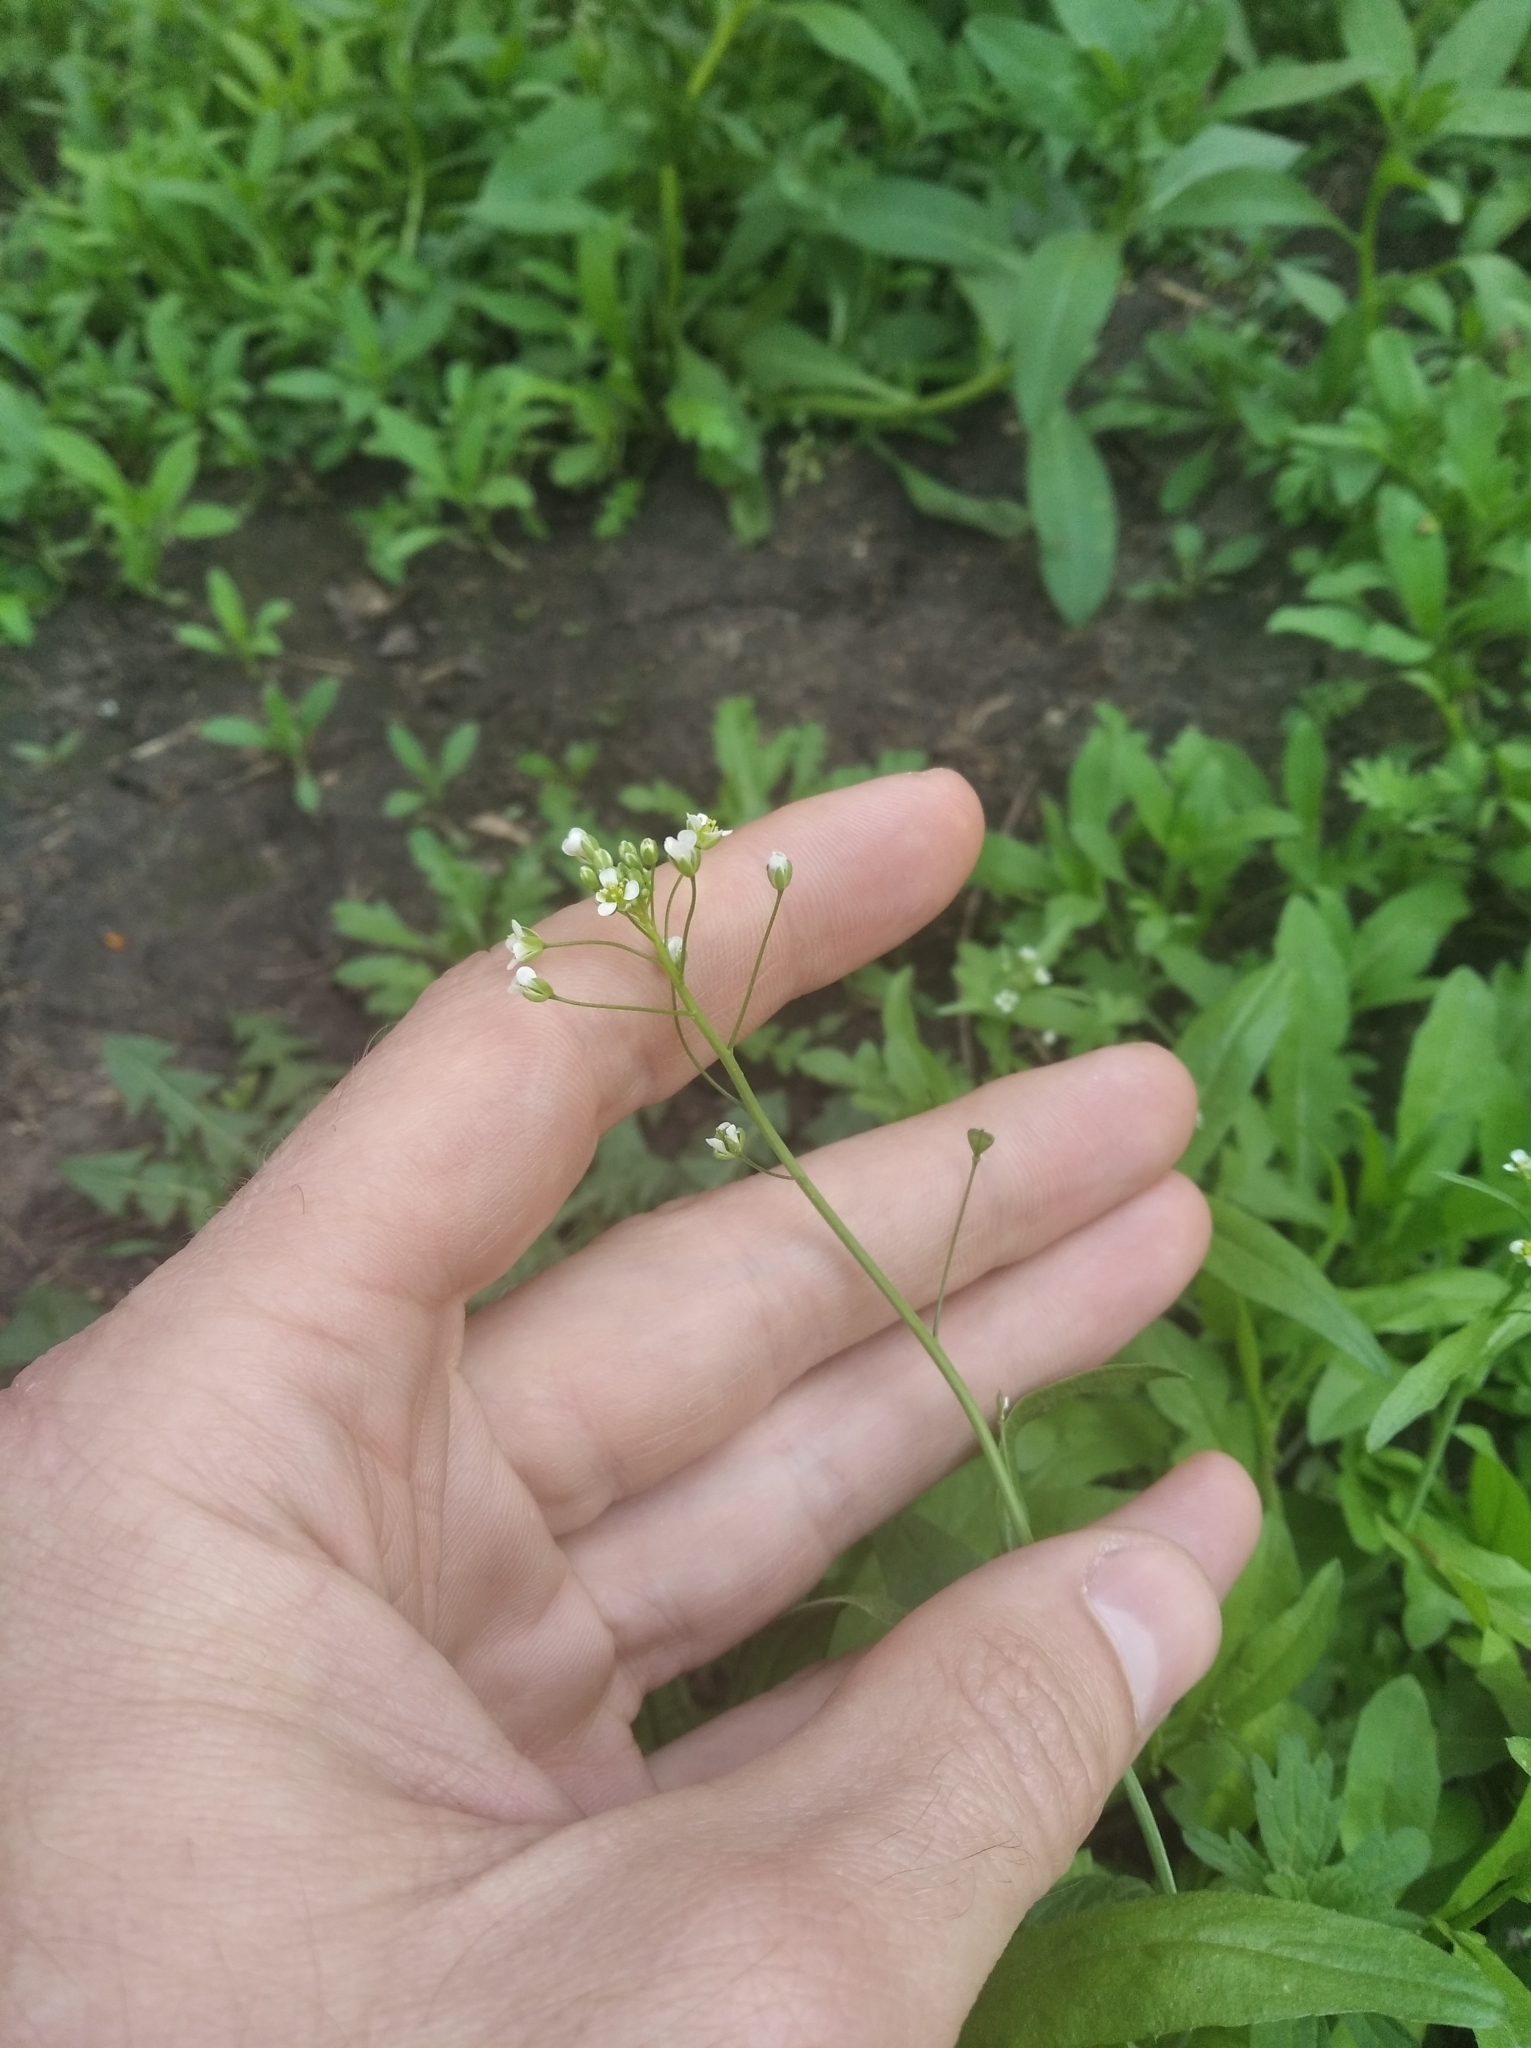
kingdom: Plantae
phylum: Tracheophyta
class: Magnoliopsida
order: Brassicales
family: Brassicaceae
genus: Capsella
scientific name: Capsella bursa-pastoris
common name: Shepherd's purse
